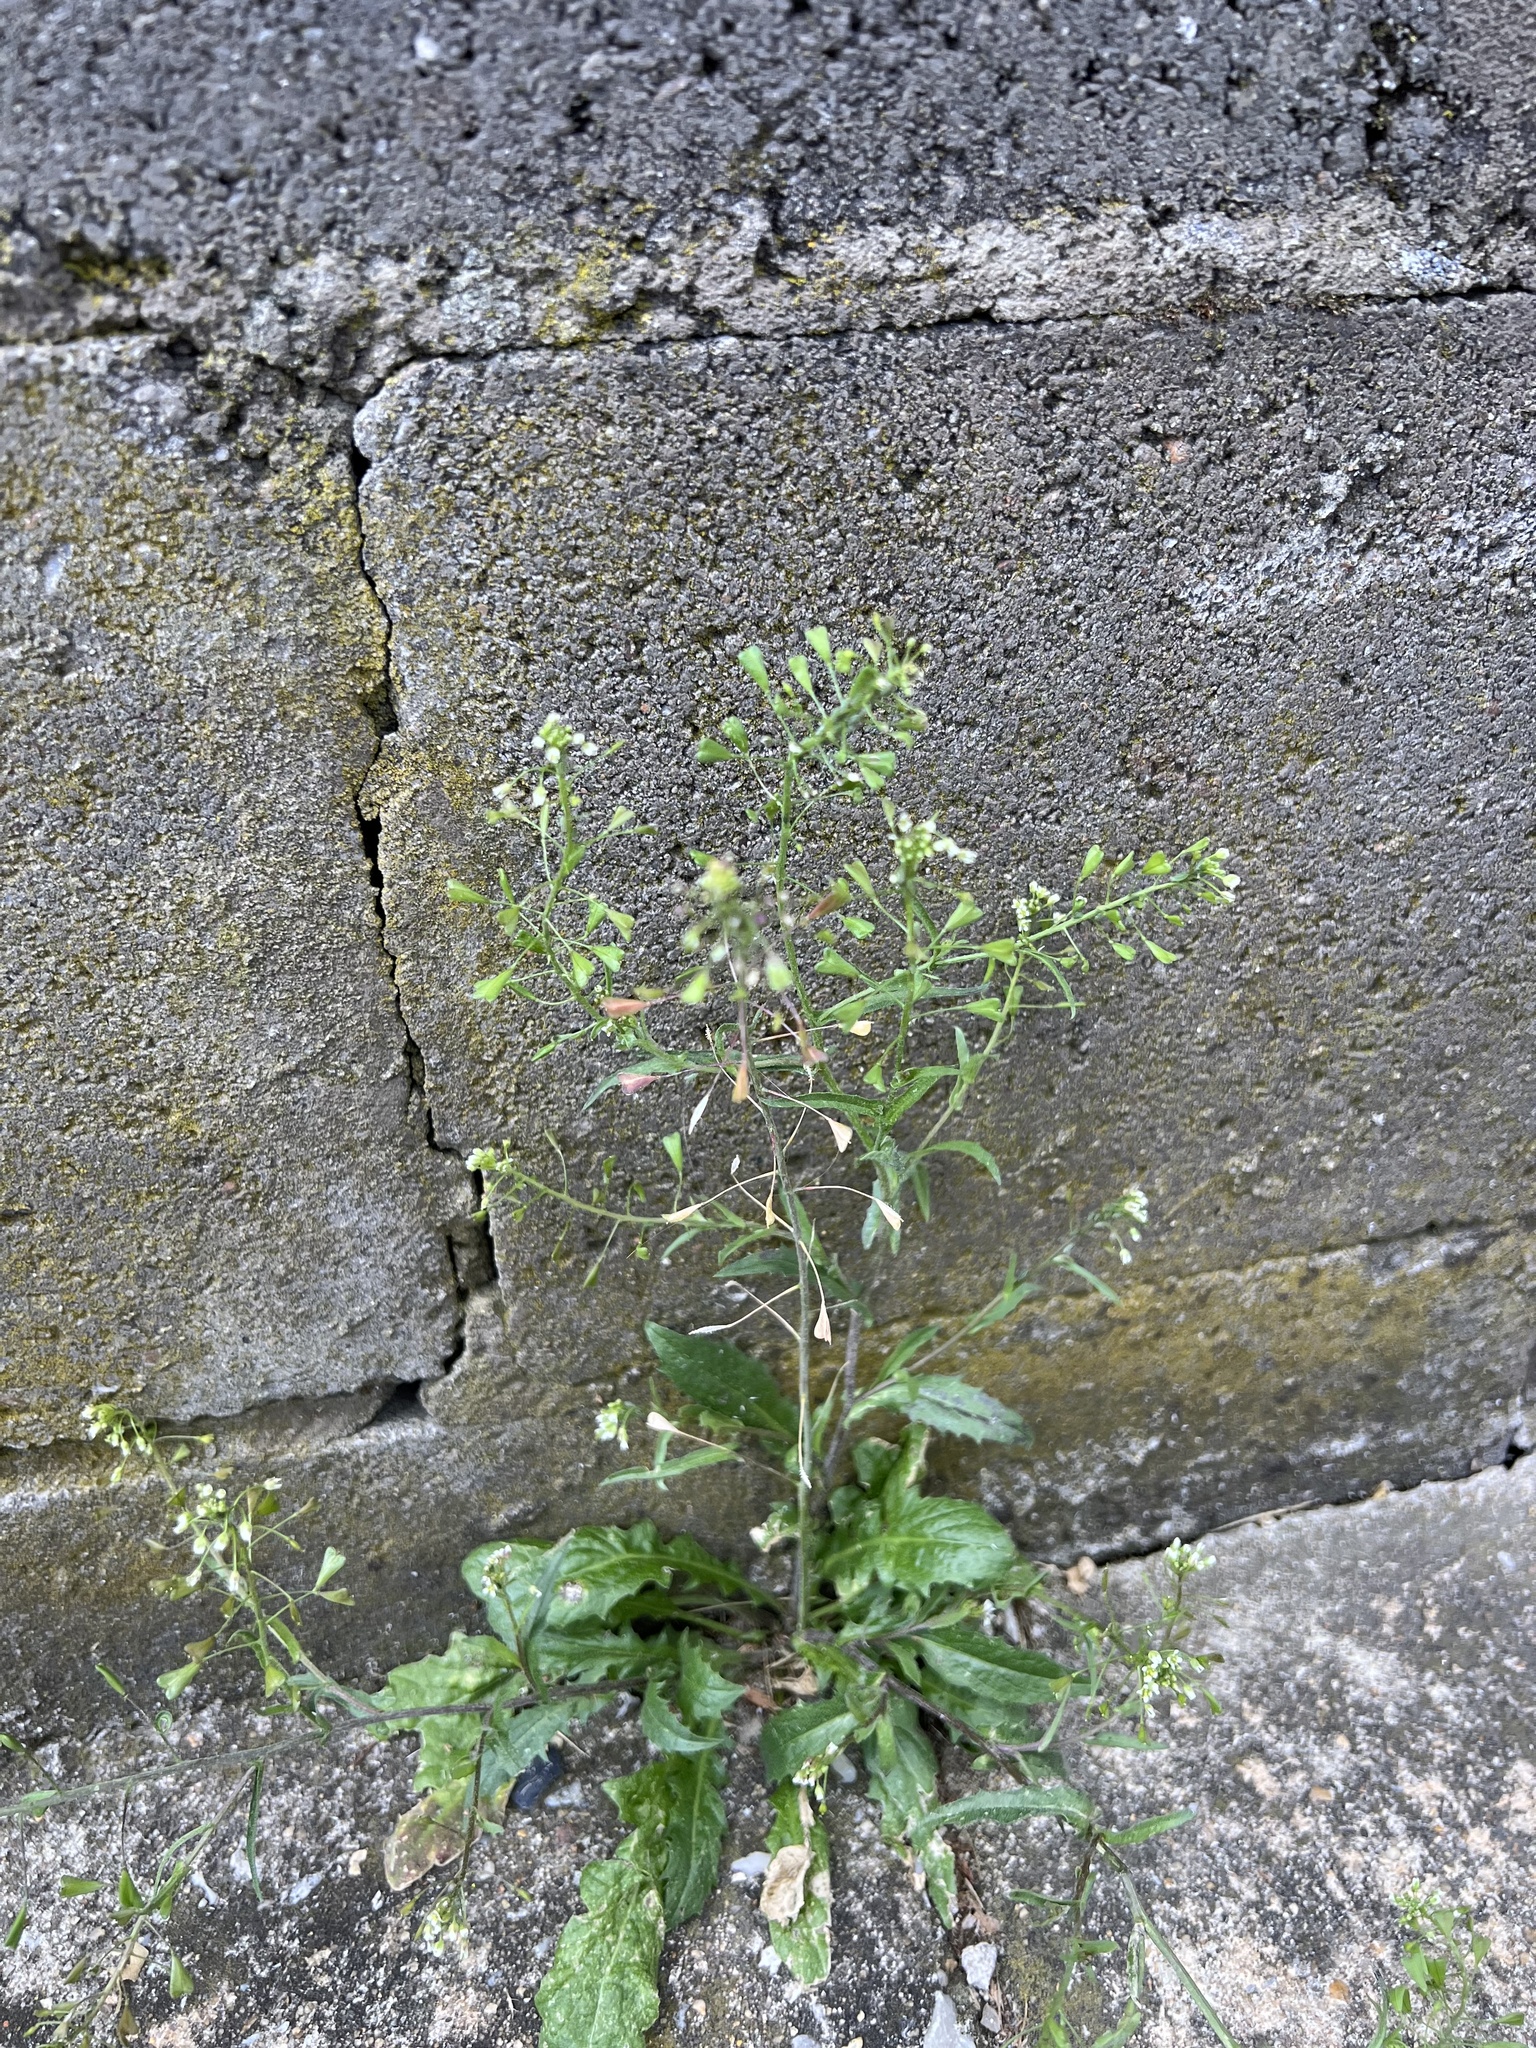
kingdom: Plantae
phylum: Tracheophyta
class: Magnoliopsida
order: Brassicales
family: Brassicaceae
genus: Capsella
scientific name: Capsella bursa-pastoris
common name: Shepherd's purse
